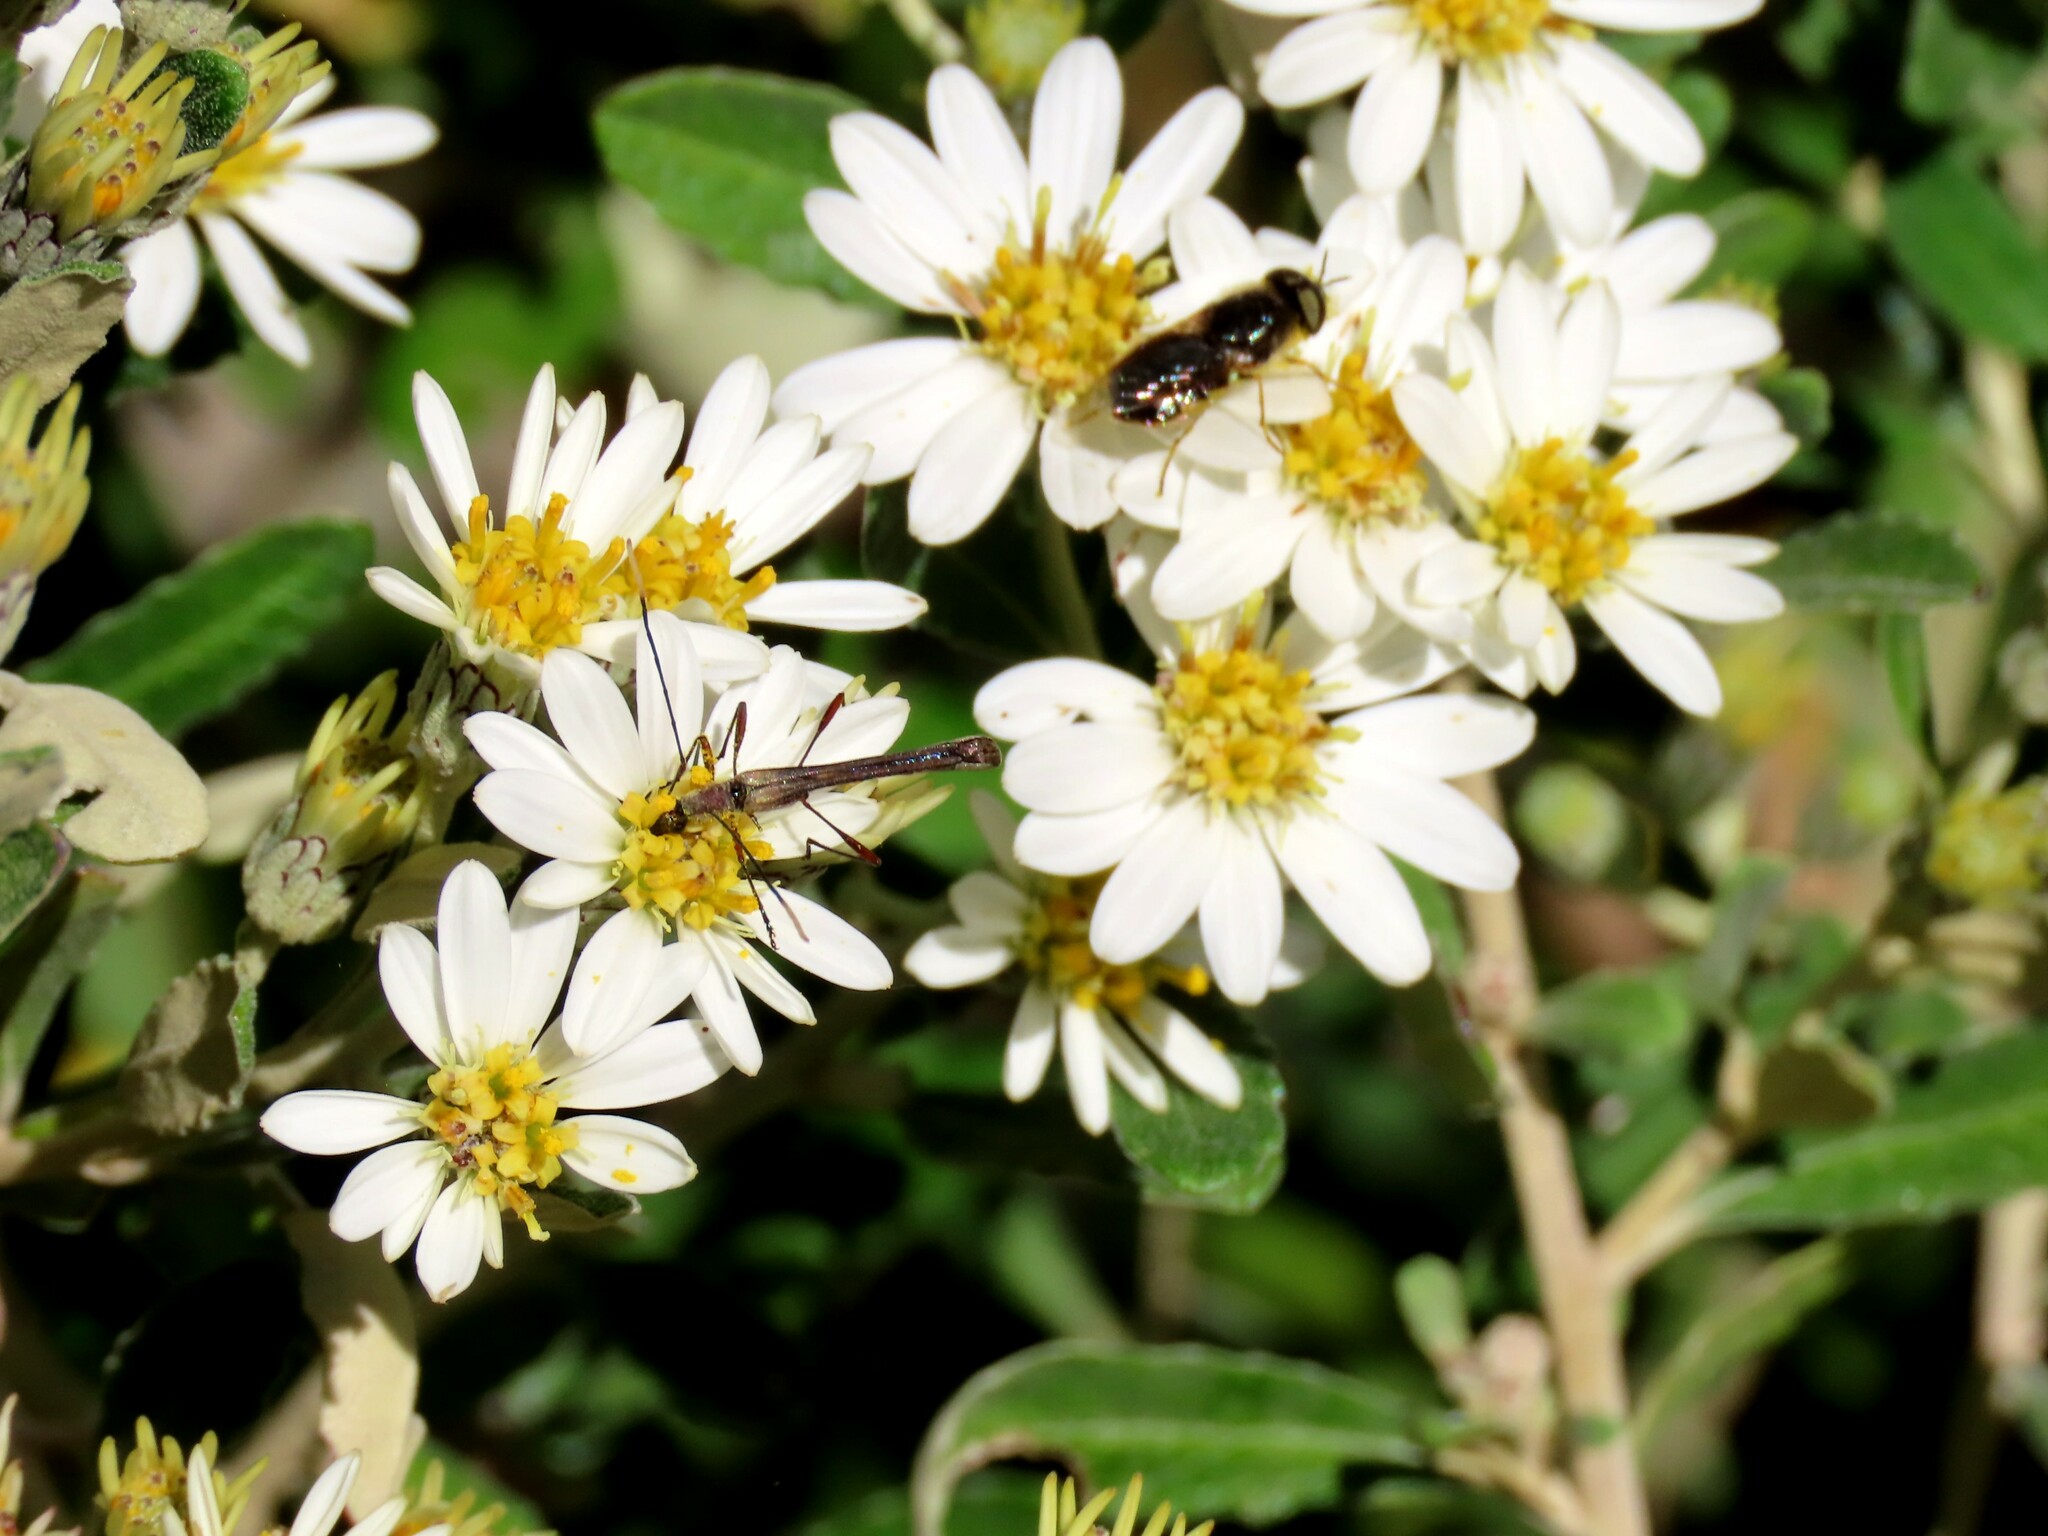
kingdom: Animalia
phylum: Arthropoda
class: Insecta
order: Coleoptera
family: Cerambycidae
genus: Enchoptera
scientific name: Enchoptera apicalis
